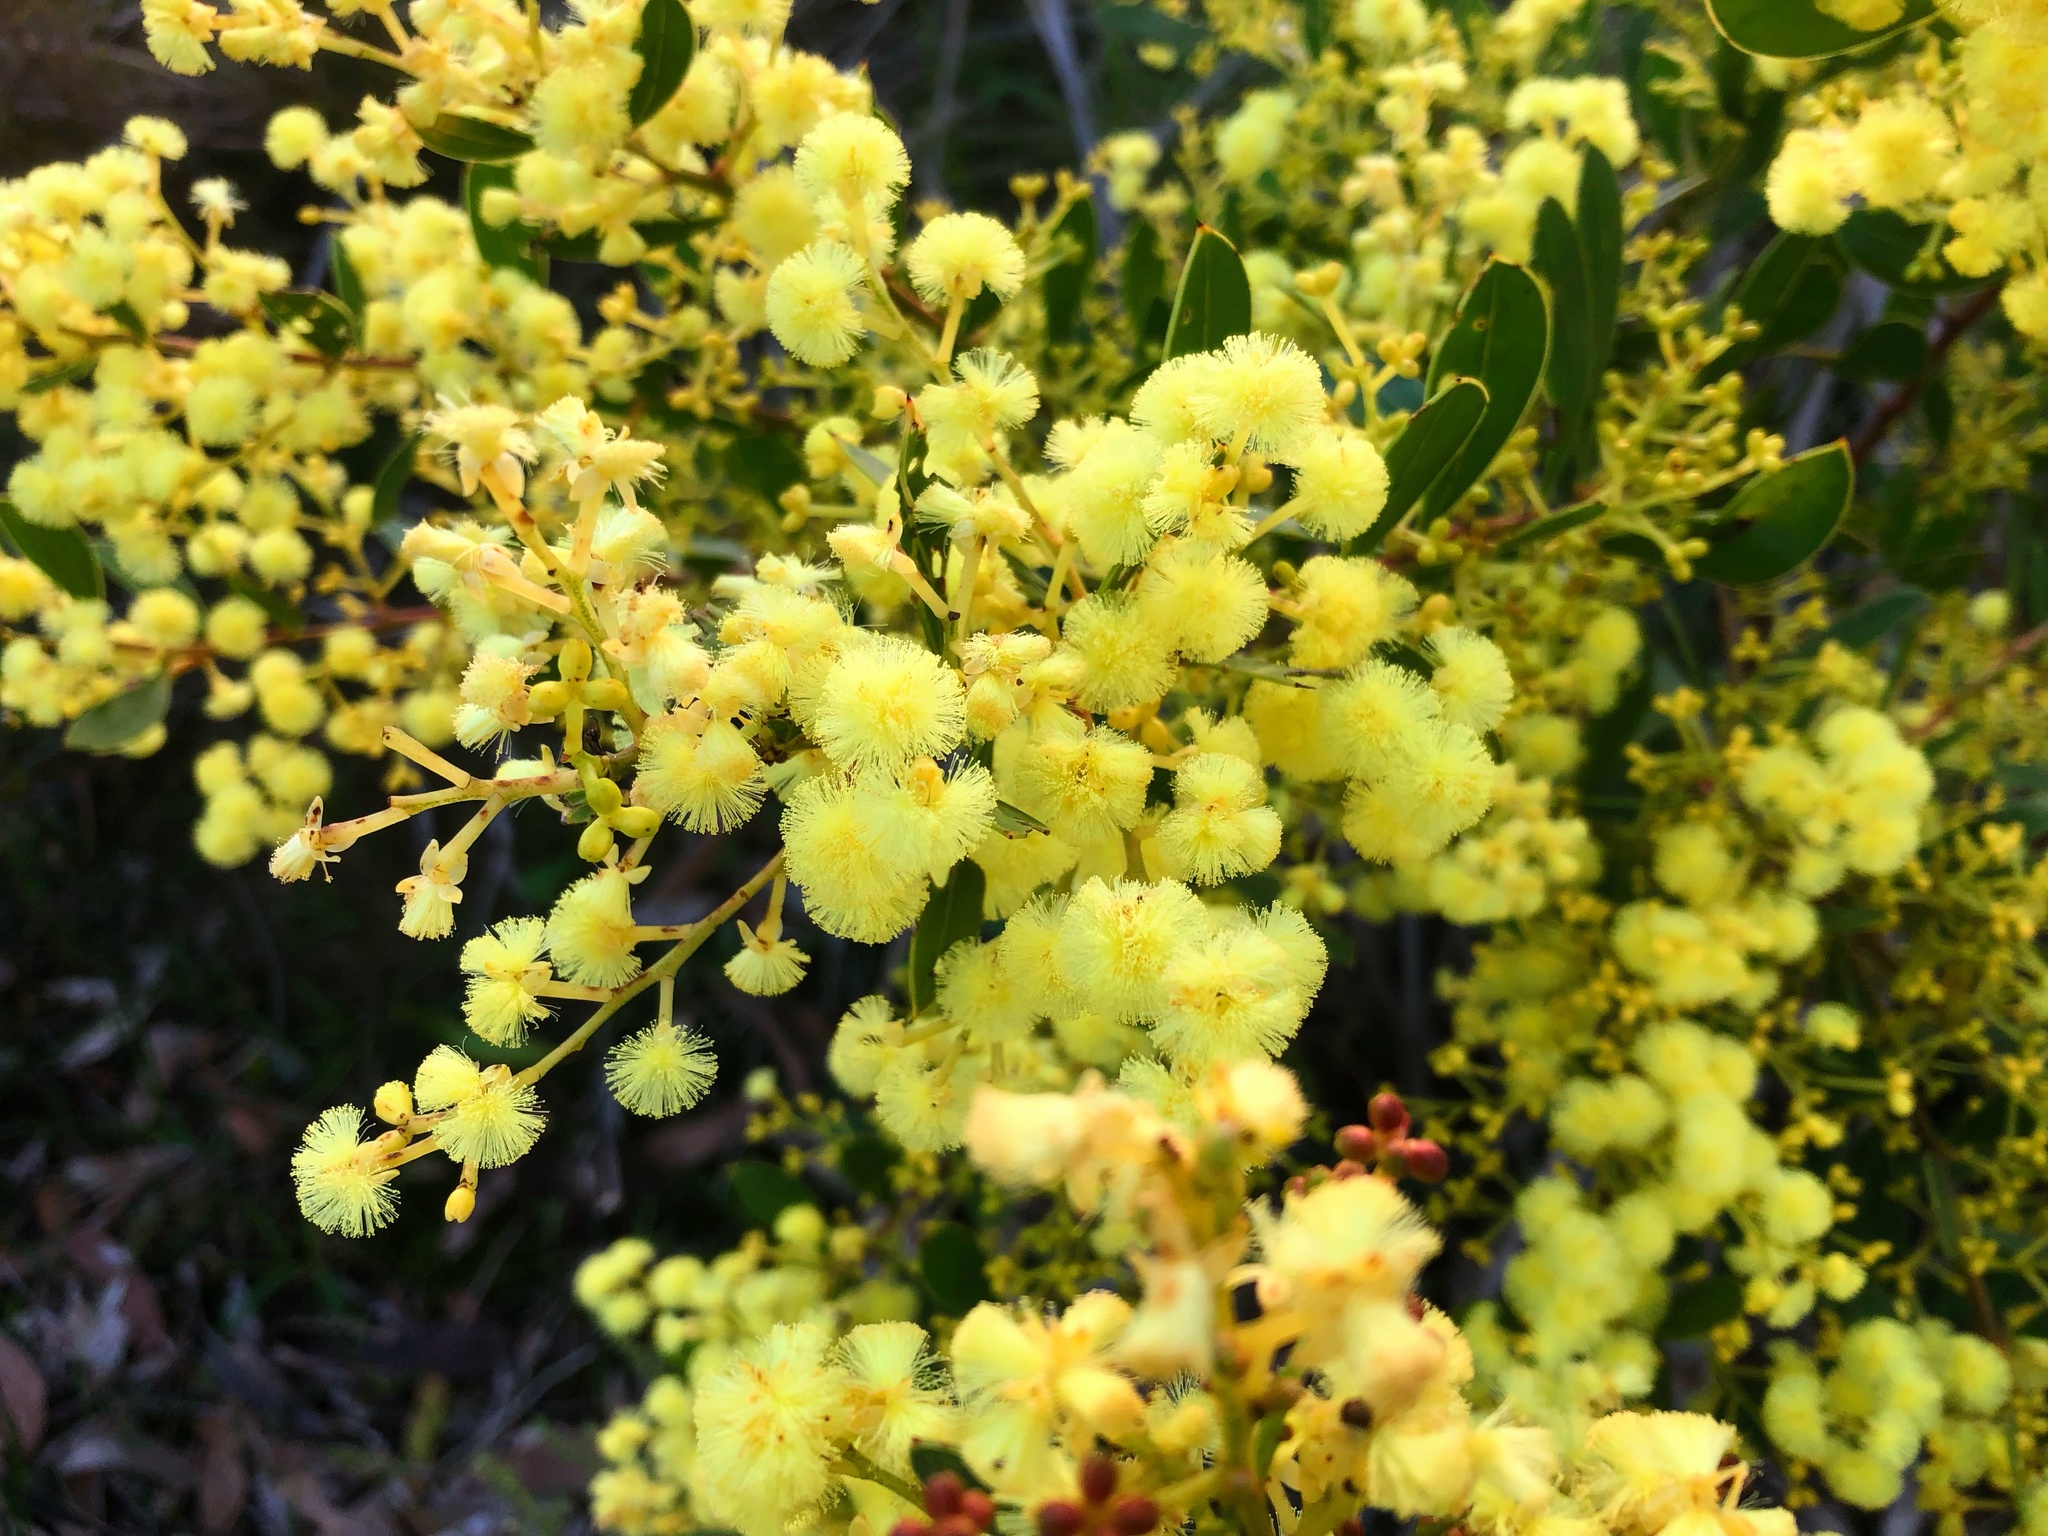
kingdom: Plantae
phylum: Tracheophyta
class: Magnoliopsida
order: Fabales
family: Fabaceae
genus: Acacia
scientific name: Acacia myrtifolia
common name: Myrtle wattle
